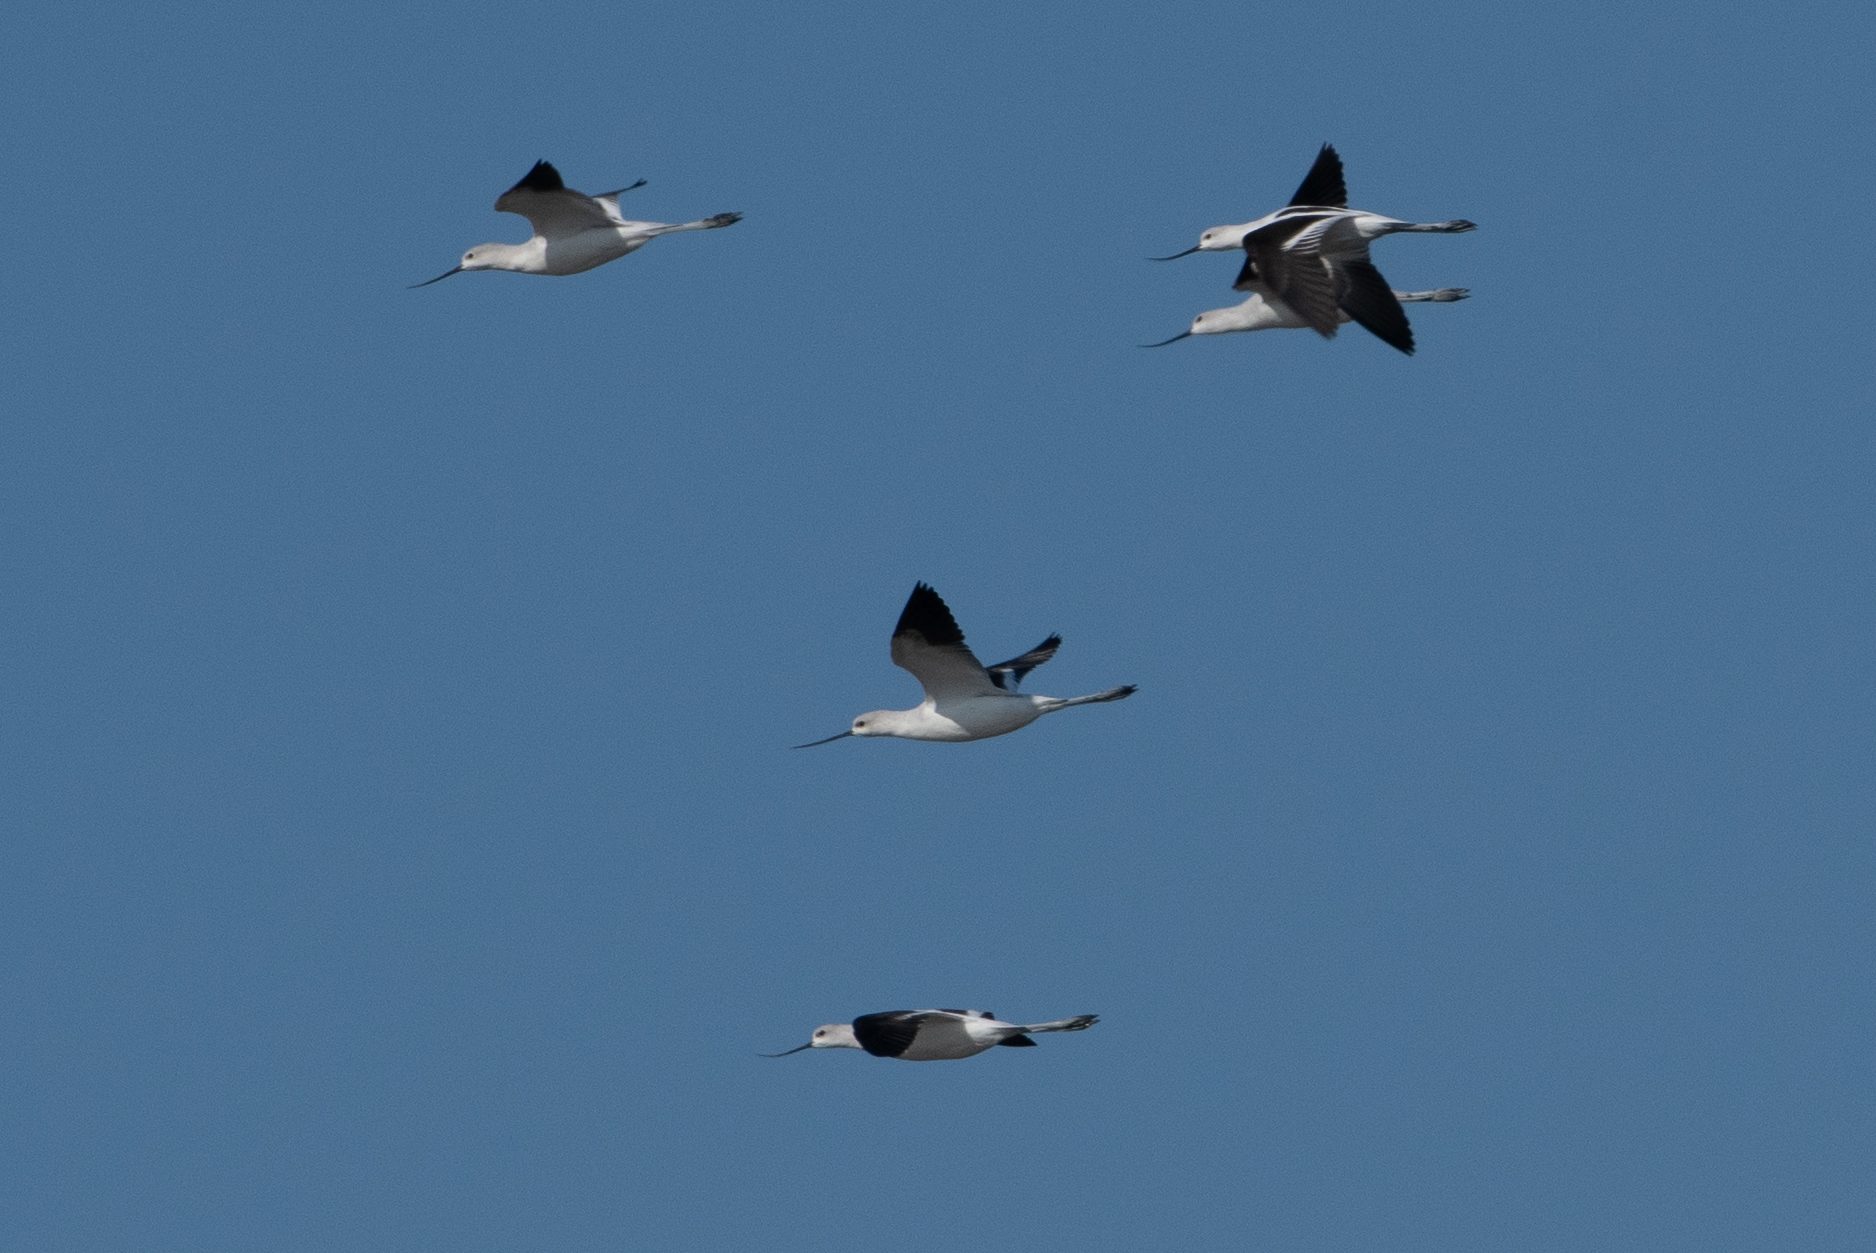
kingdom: Animalia
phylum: Chordata
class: Aves
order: Charadriiformes
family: Recurvirostridae
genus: Recurvirostra
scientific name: Recurvirostra americana
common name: American avocet
